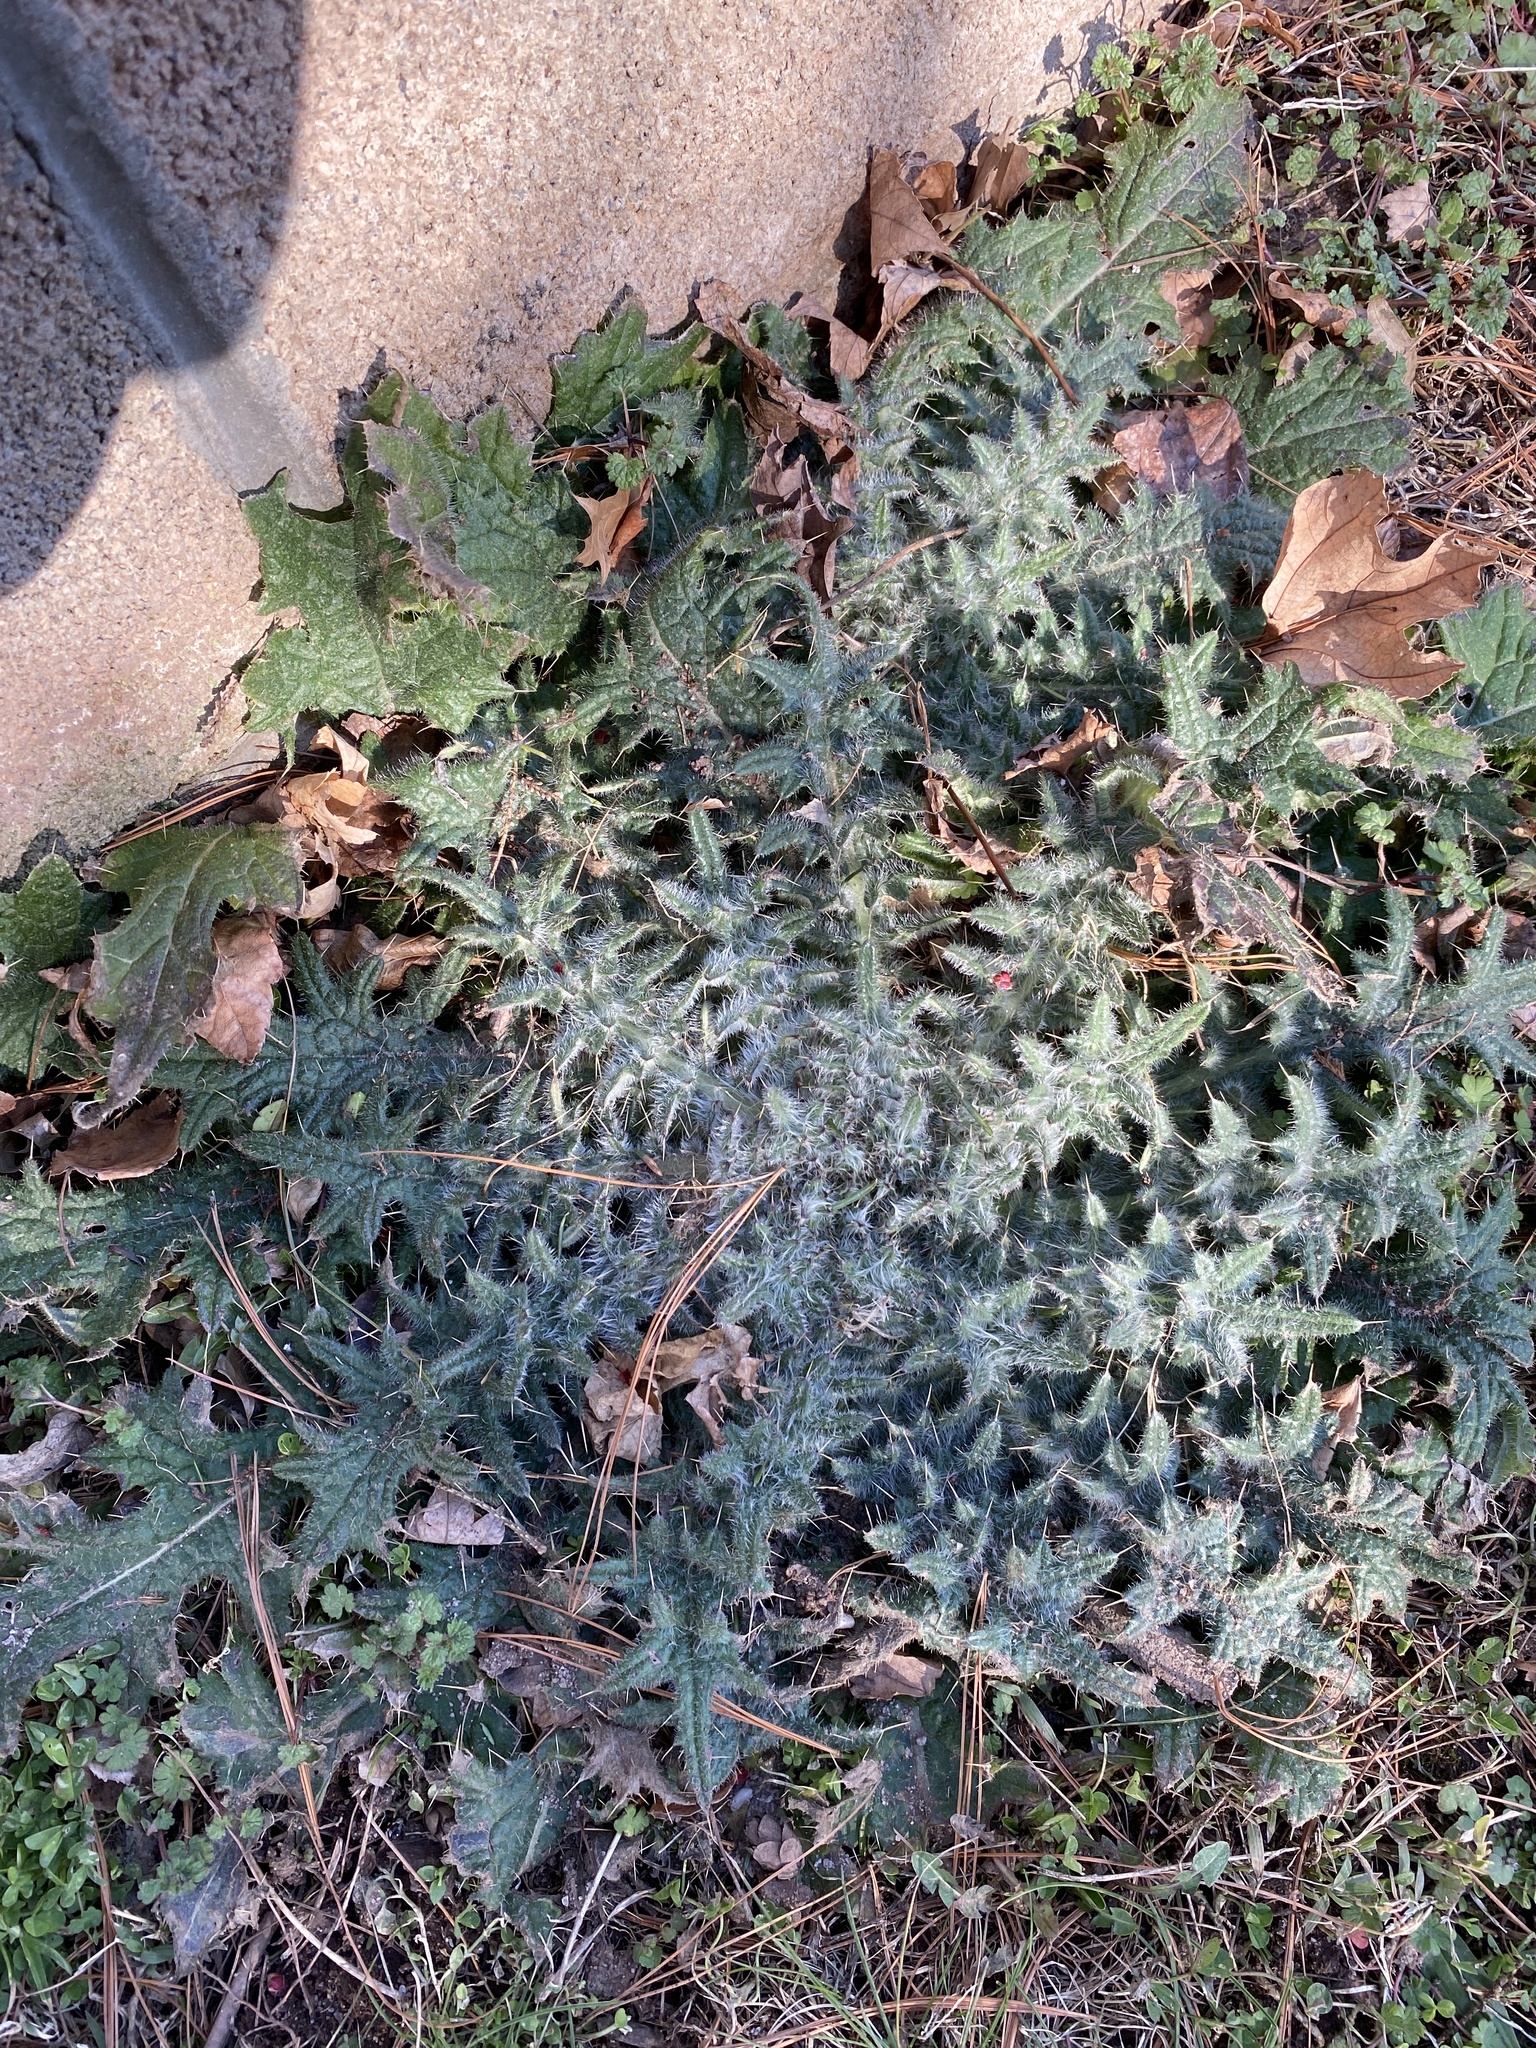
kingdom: Plantae
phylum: Tracheophyta
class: Magnoliopsida
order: Asterales
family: Asteraceae
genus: Cirsium
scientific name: Cirsium vulgare
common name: Bull thistle
